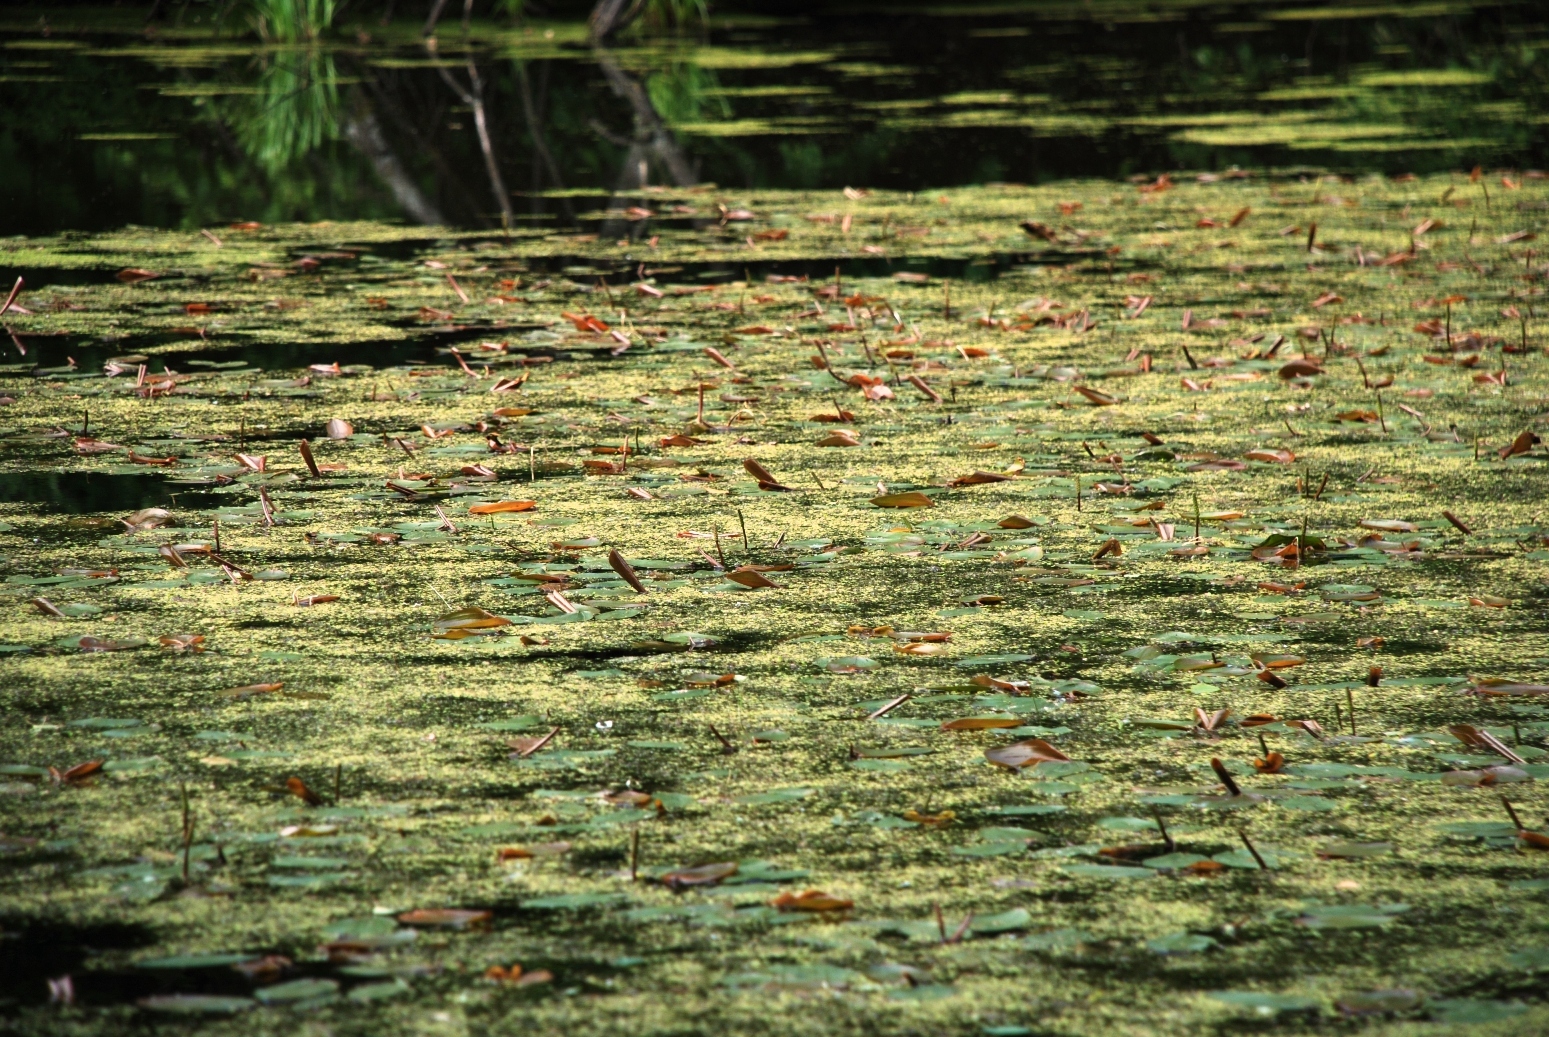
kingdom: Plantae
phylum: Tracheophyta
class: Liliopsida
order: Alismatales
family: Potamogetonaceae
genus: Potamogeton
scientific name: Potamogeton natans
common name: Broad-leaved pondweed
